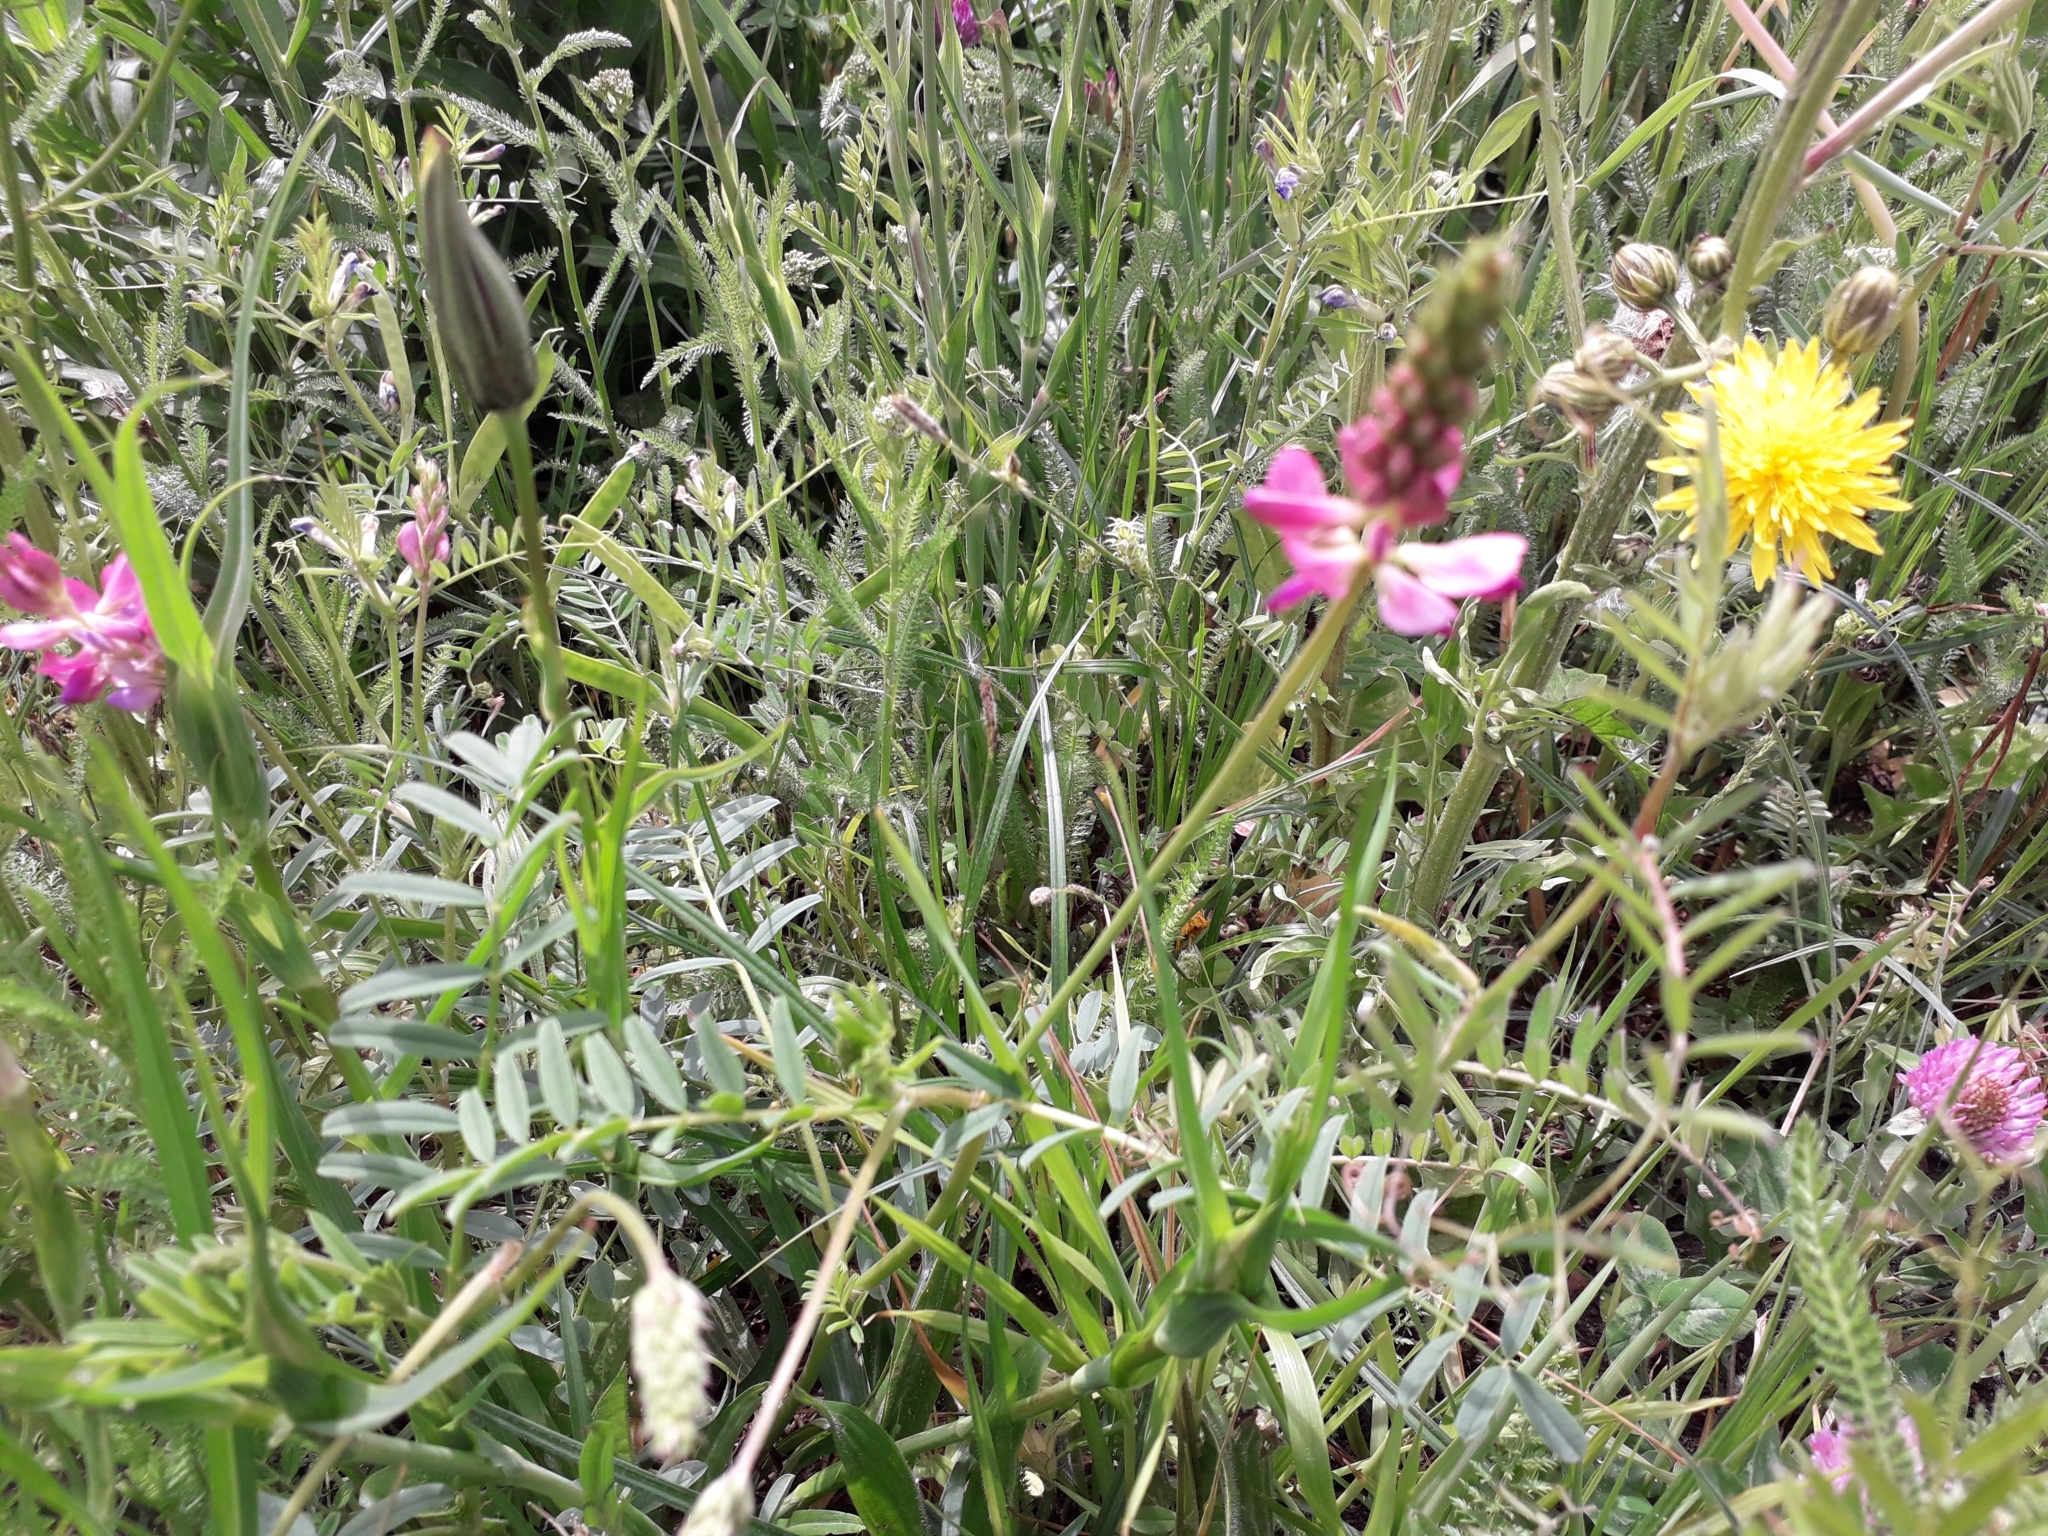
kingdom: Plantae
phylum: Tracheophyta
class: Magnoliopsida
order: Fabales
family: Fabaceae
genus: Onobrychis
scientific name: Onobrychis viciifolia
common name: Sainfoin
